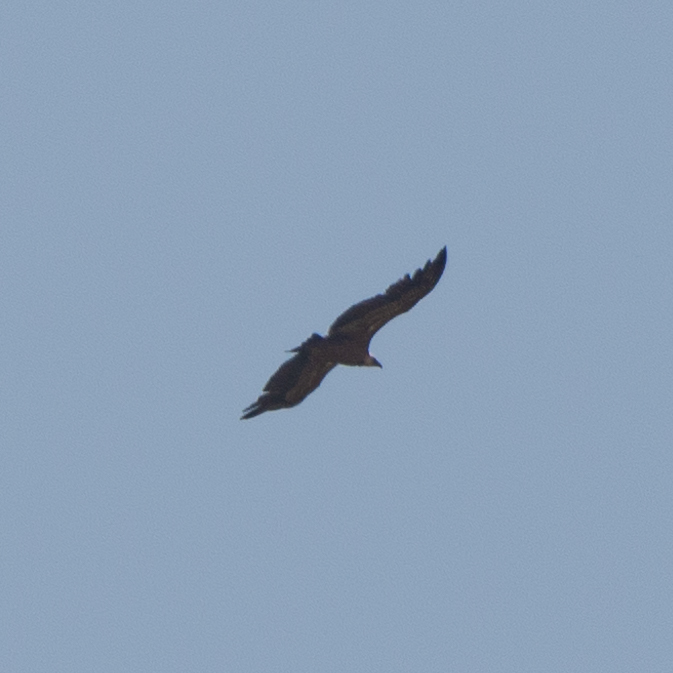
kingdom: Animalia
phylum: Chordata
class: Aves
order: Accipitriformes
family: Accipitridae
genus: Gyps
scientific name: Gyps fulvus
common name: Griffon vulture
